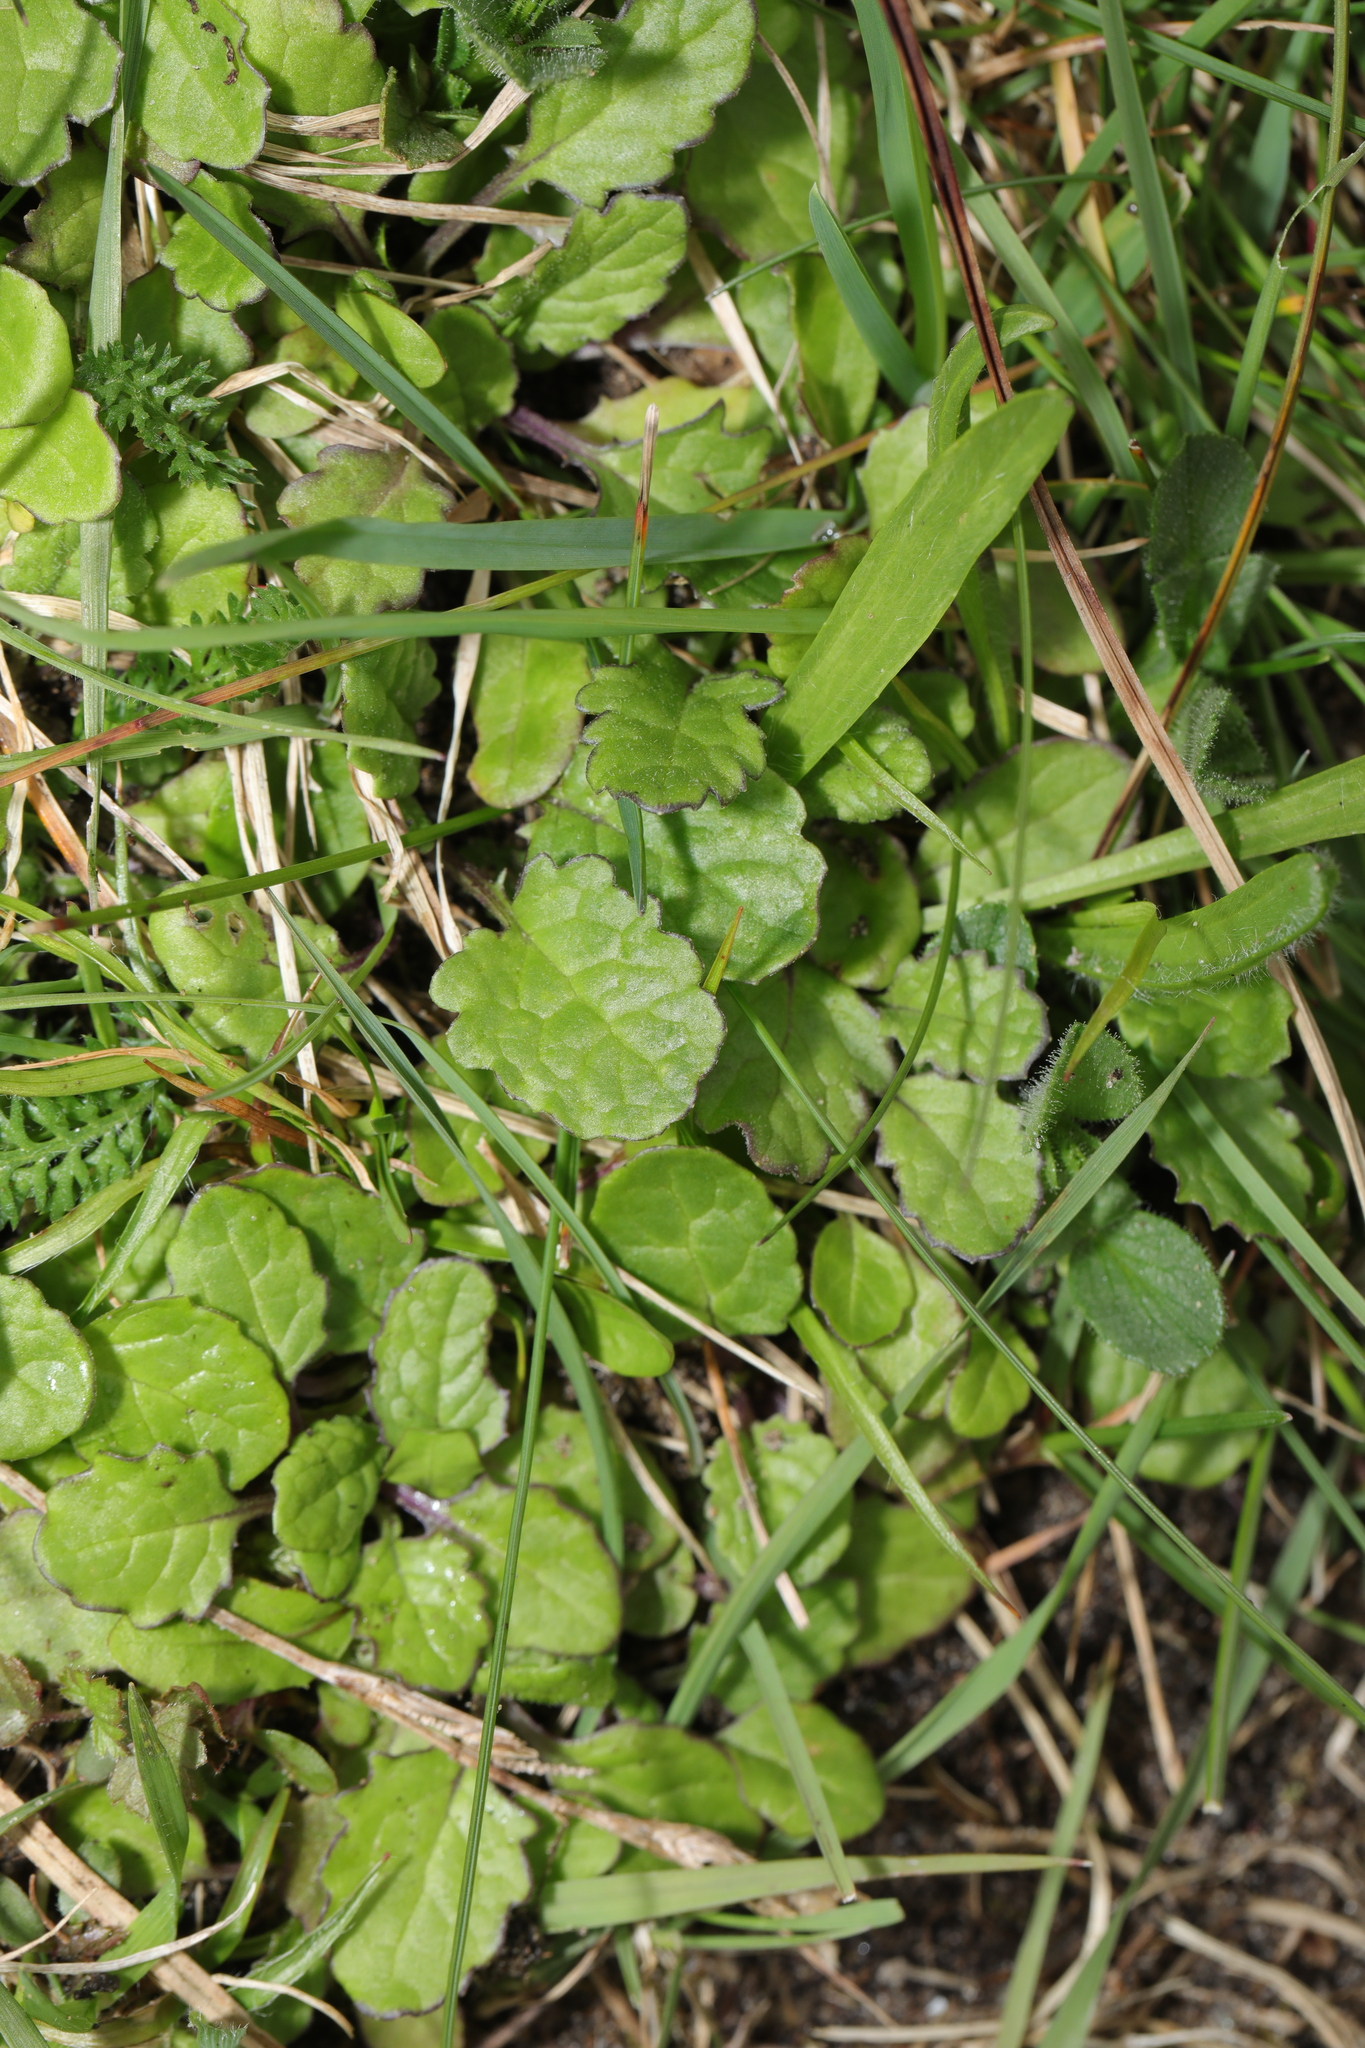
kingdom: Plantae
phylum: Tracheophyta
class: Magnoliopsida
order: Asterales
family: Asteraceae
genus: Jacobaea
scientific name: Jacobaea vulgaris
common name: Stinking willie
